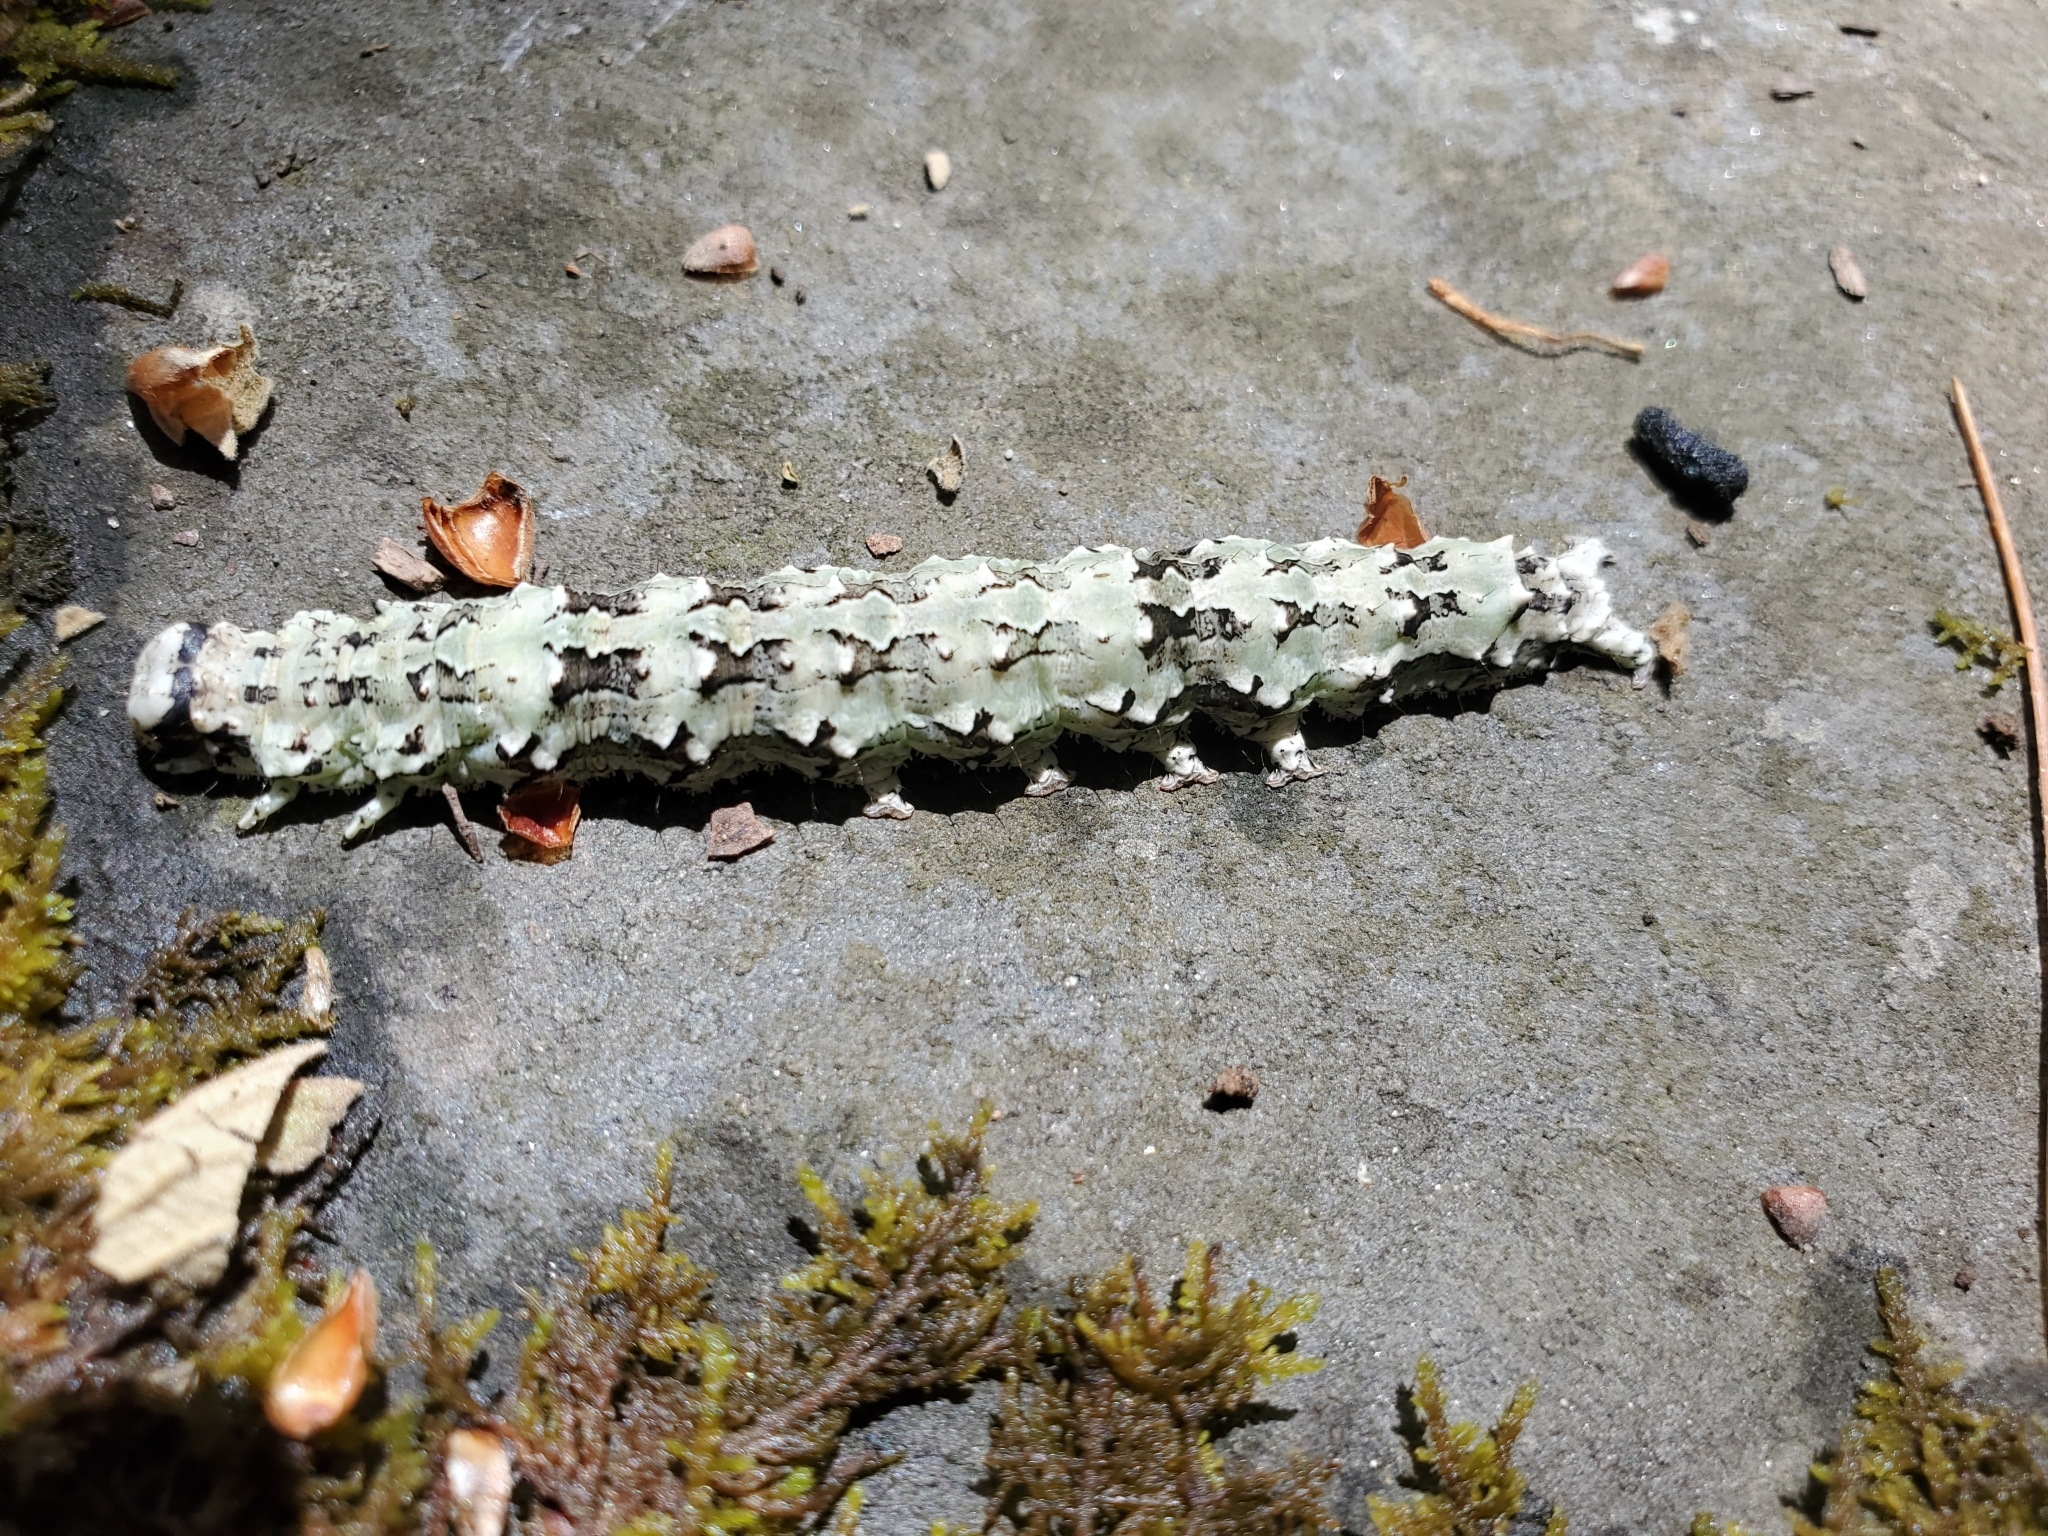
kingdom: Animalia
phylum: Arthropoda
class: Insecta
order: Lepidoptera
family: Erebidae
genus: Catocala
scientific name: Catocala ilia
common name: Ilia underwing
